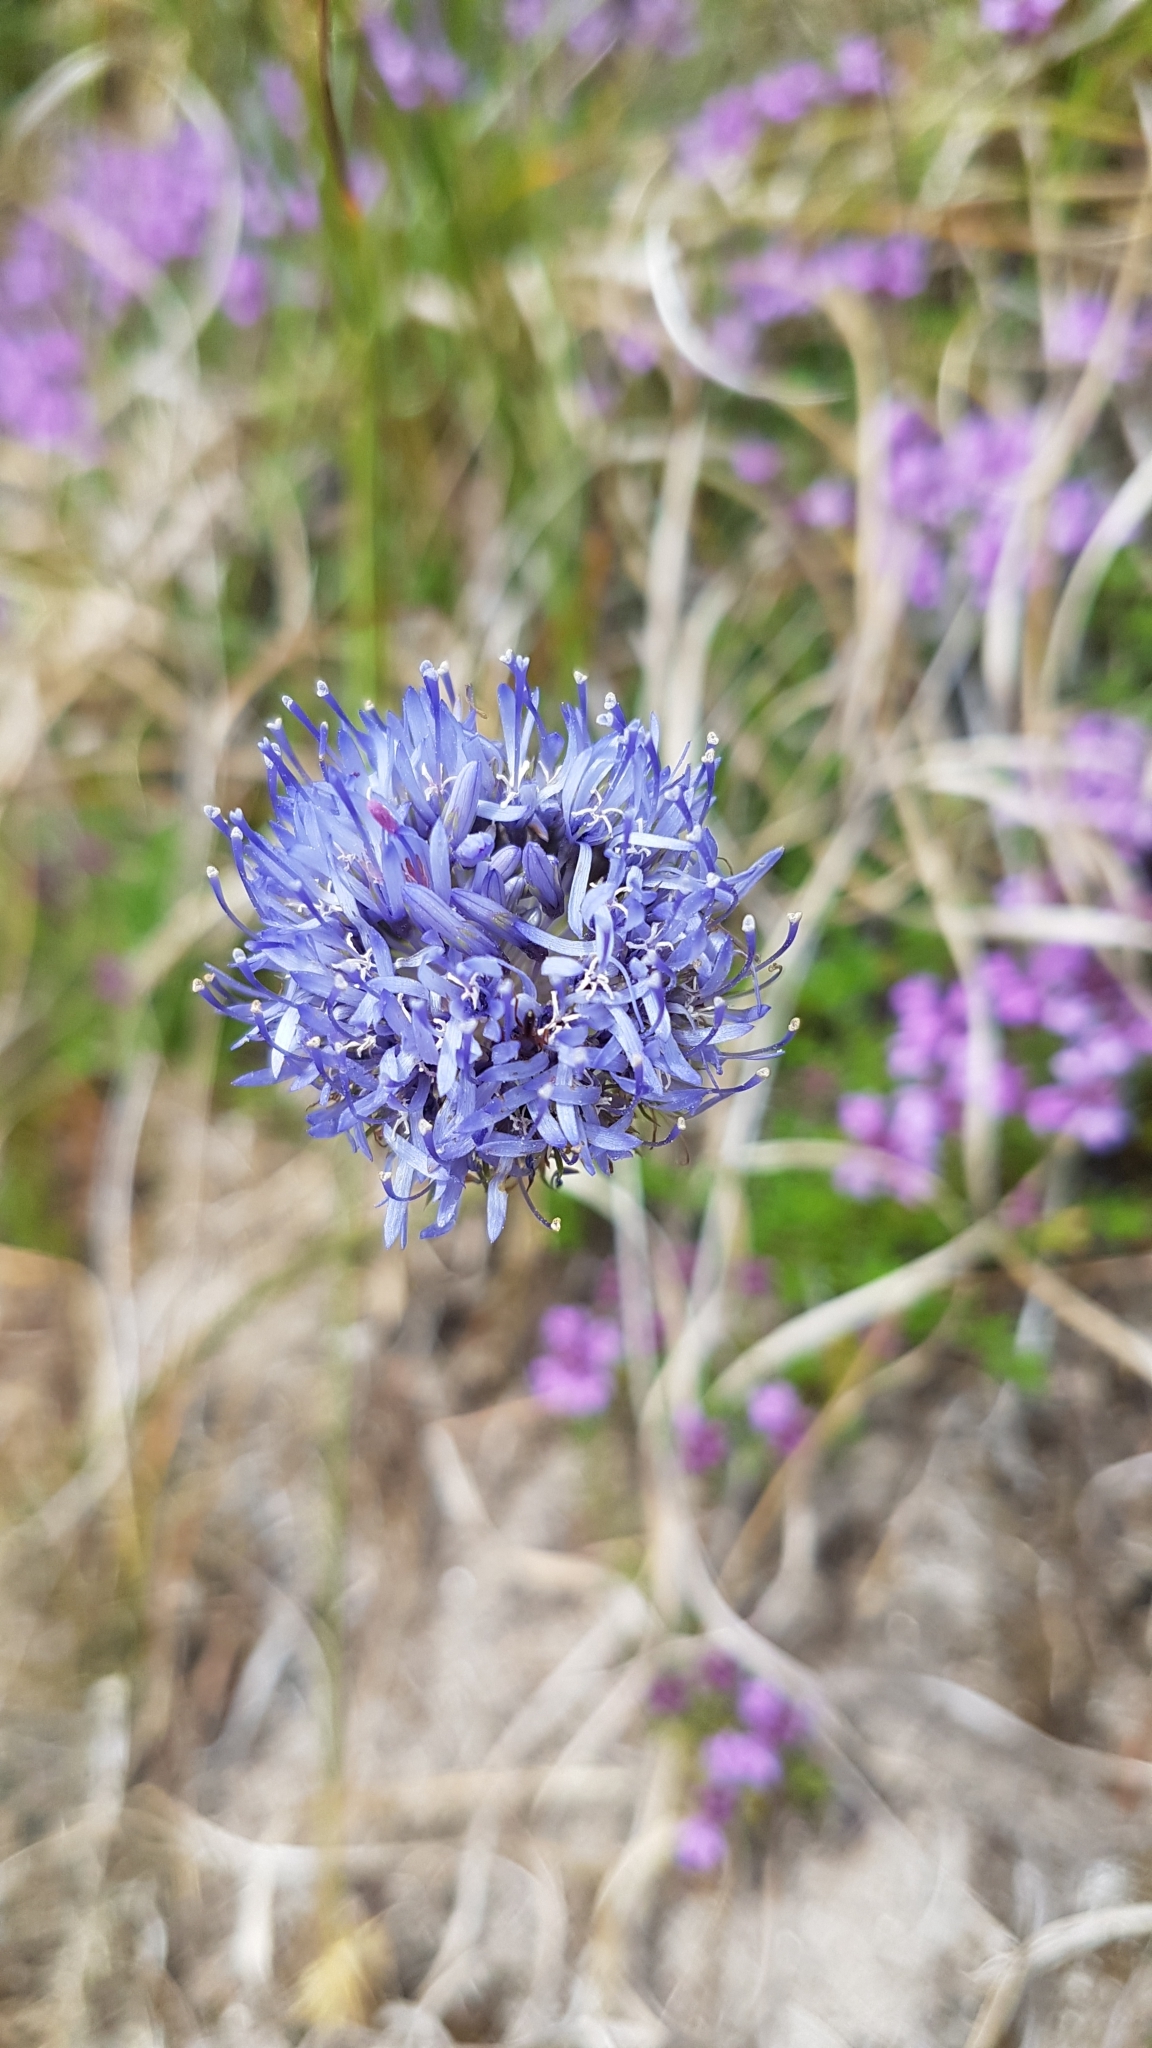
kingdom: Plantae
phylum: Tracheophyta
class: Magnoliopsida
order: Asterales
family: Campanulaceae
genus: Jasione
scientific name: Jasione montana
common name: Sheep's-bit
